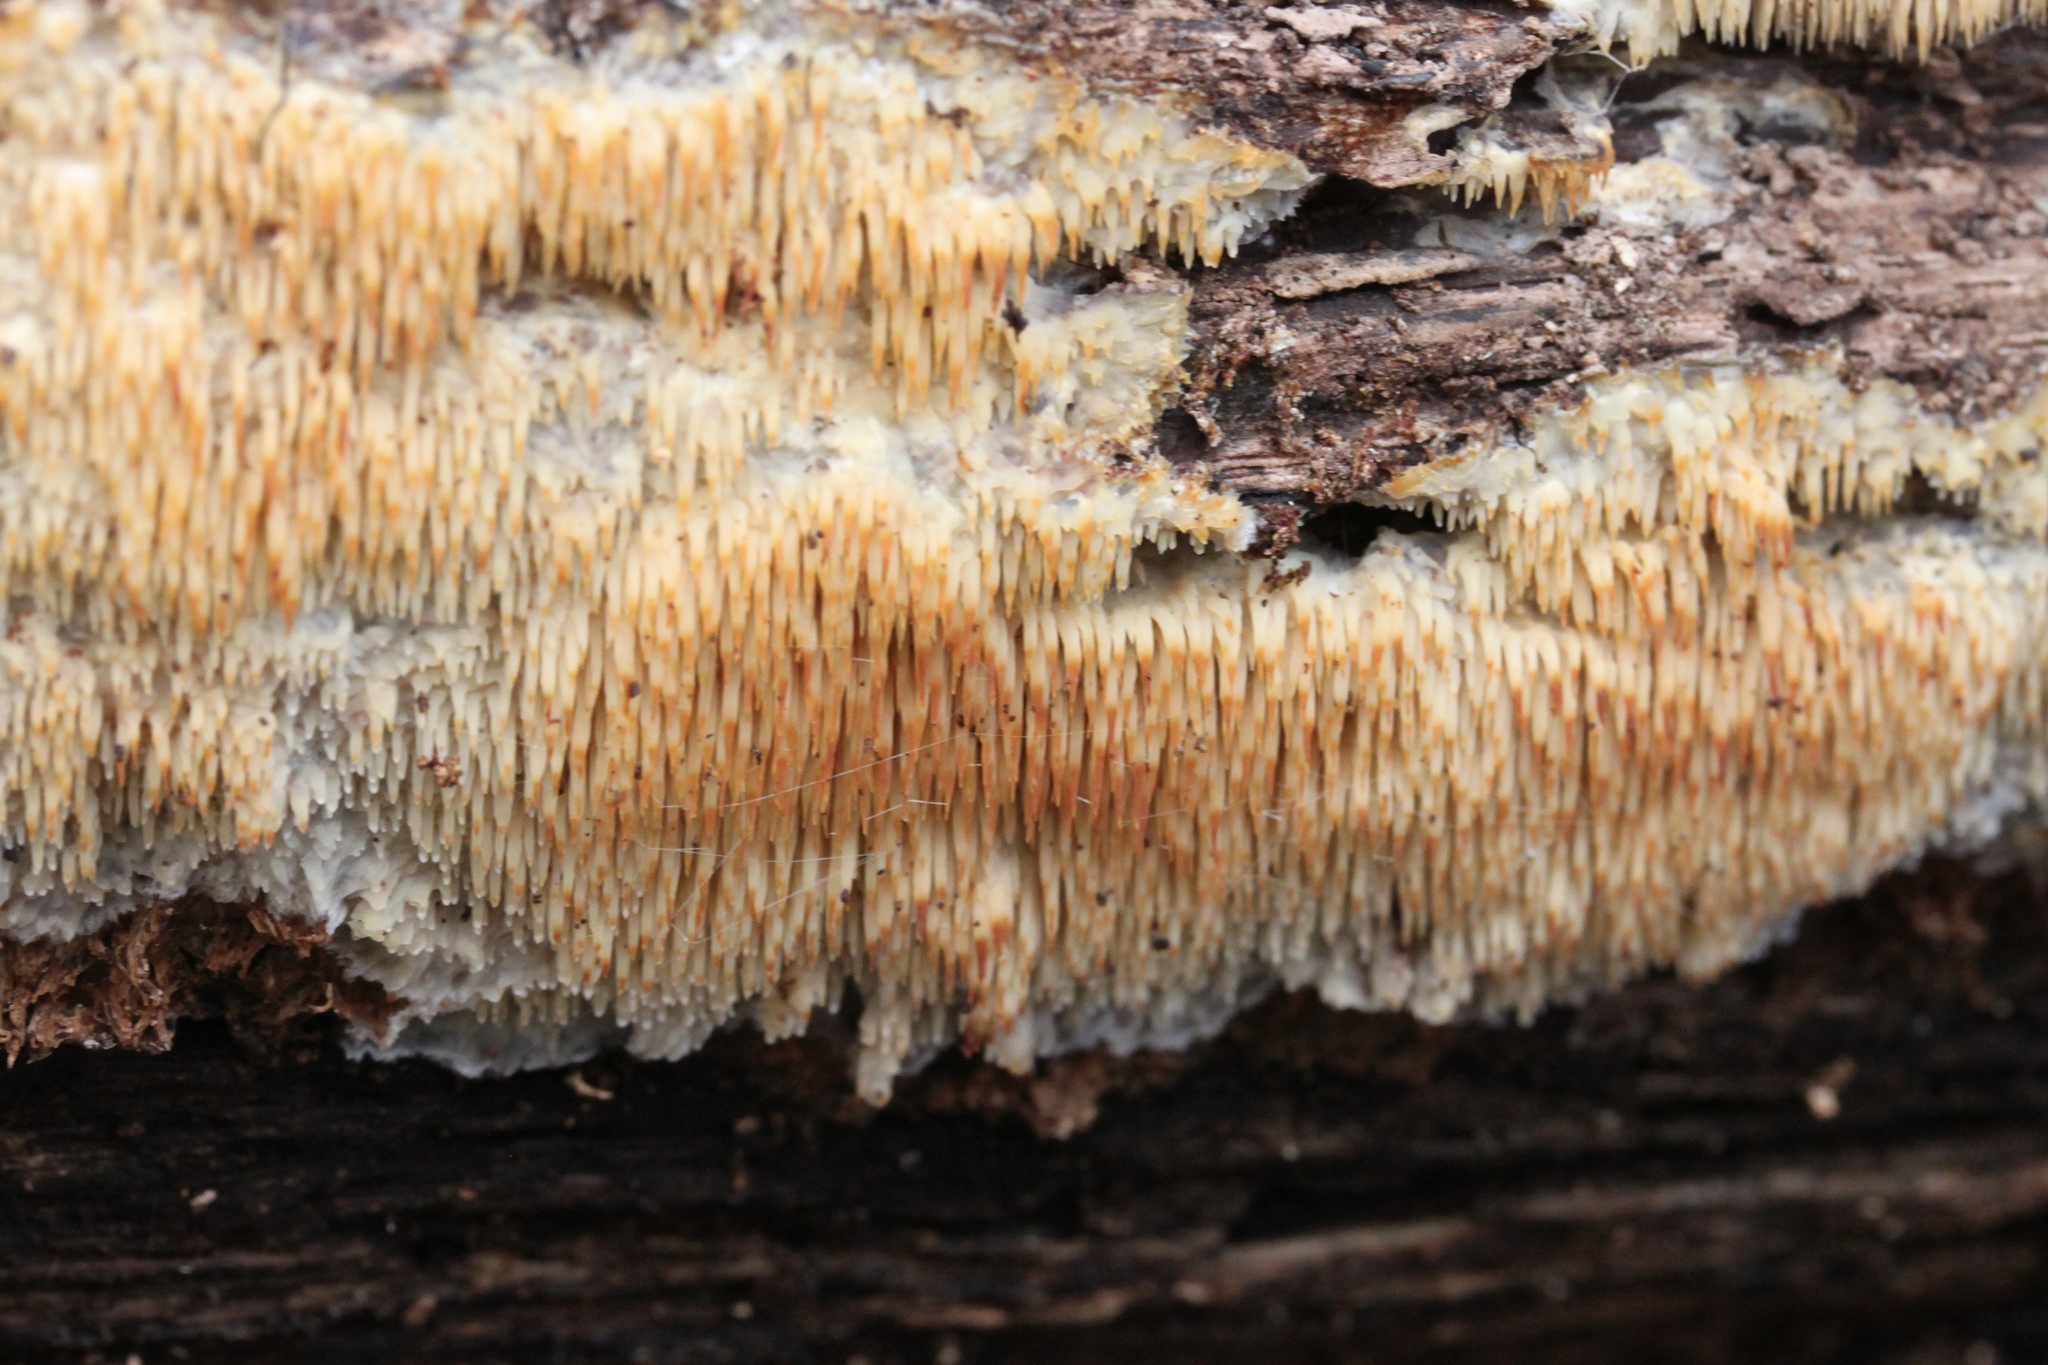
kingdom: Fungi
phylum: Basidiomycota
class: Agaricomycetes
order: Agaricales
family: Radulomycetaceae
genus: Radulomyces
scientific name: Radulomyces copelandii
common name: Asian beauty
